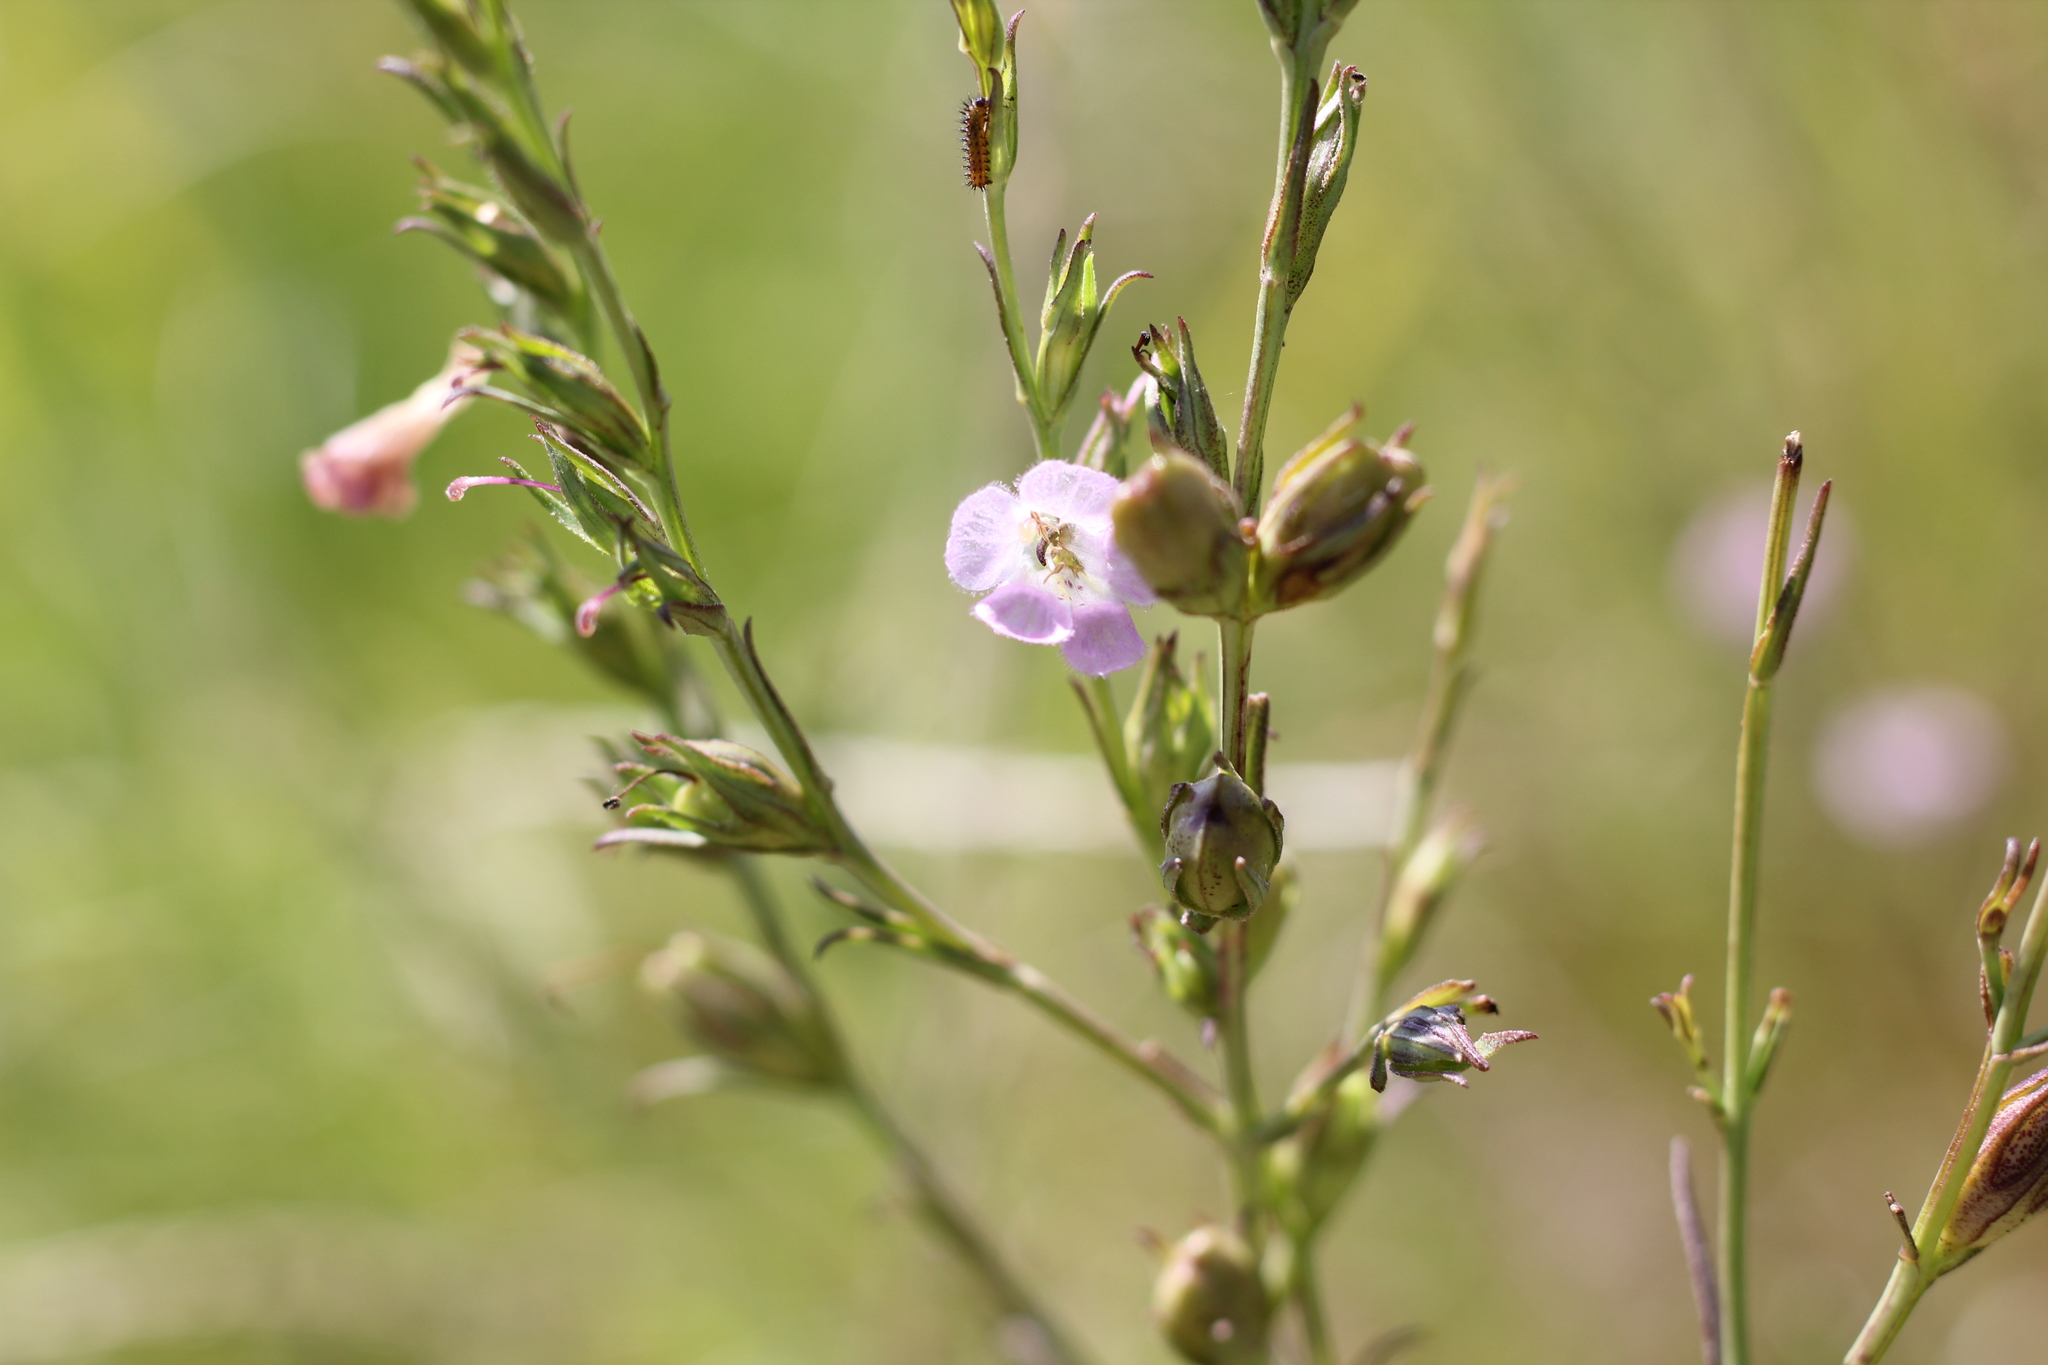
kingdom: Plantae
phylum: Tracheophyta
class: Magnoliopsida
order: Lamiales
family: Orobanchaceae
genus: Agalinis
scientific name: Agalinis communis
